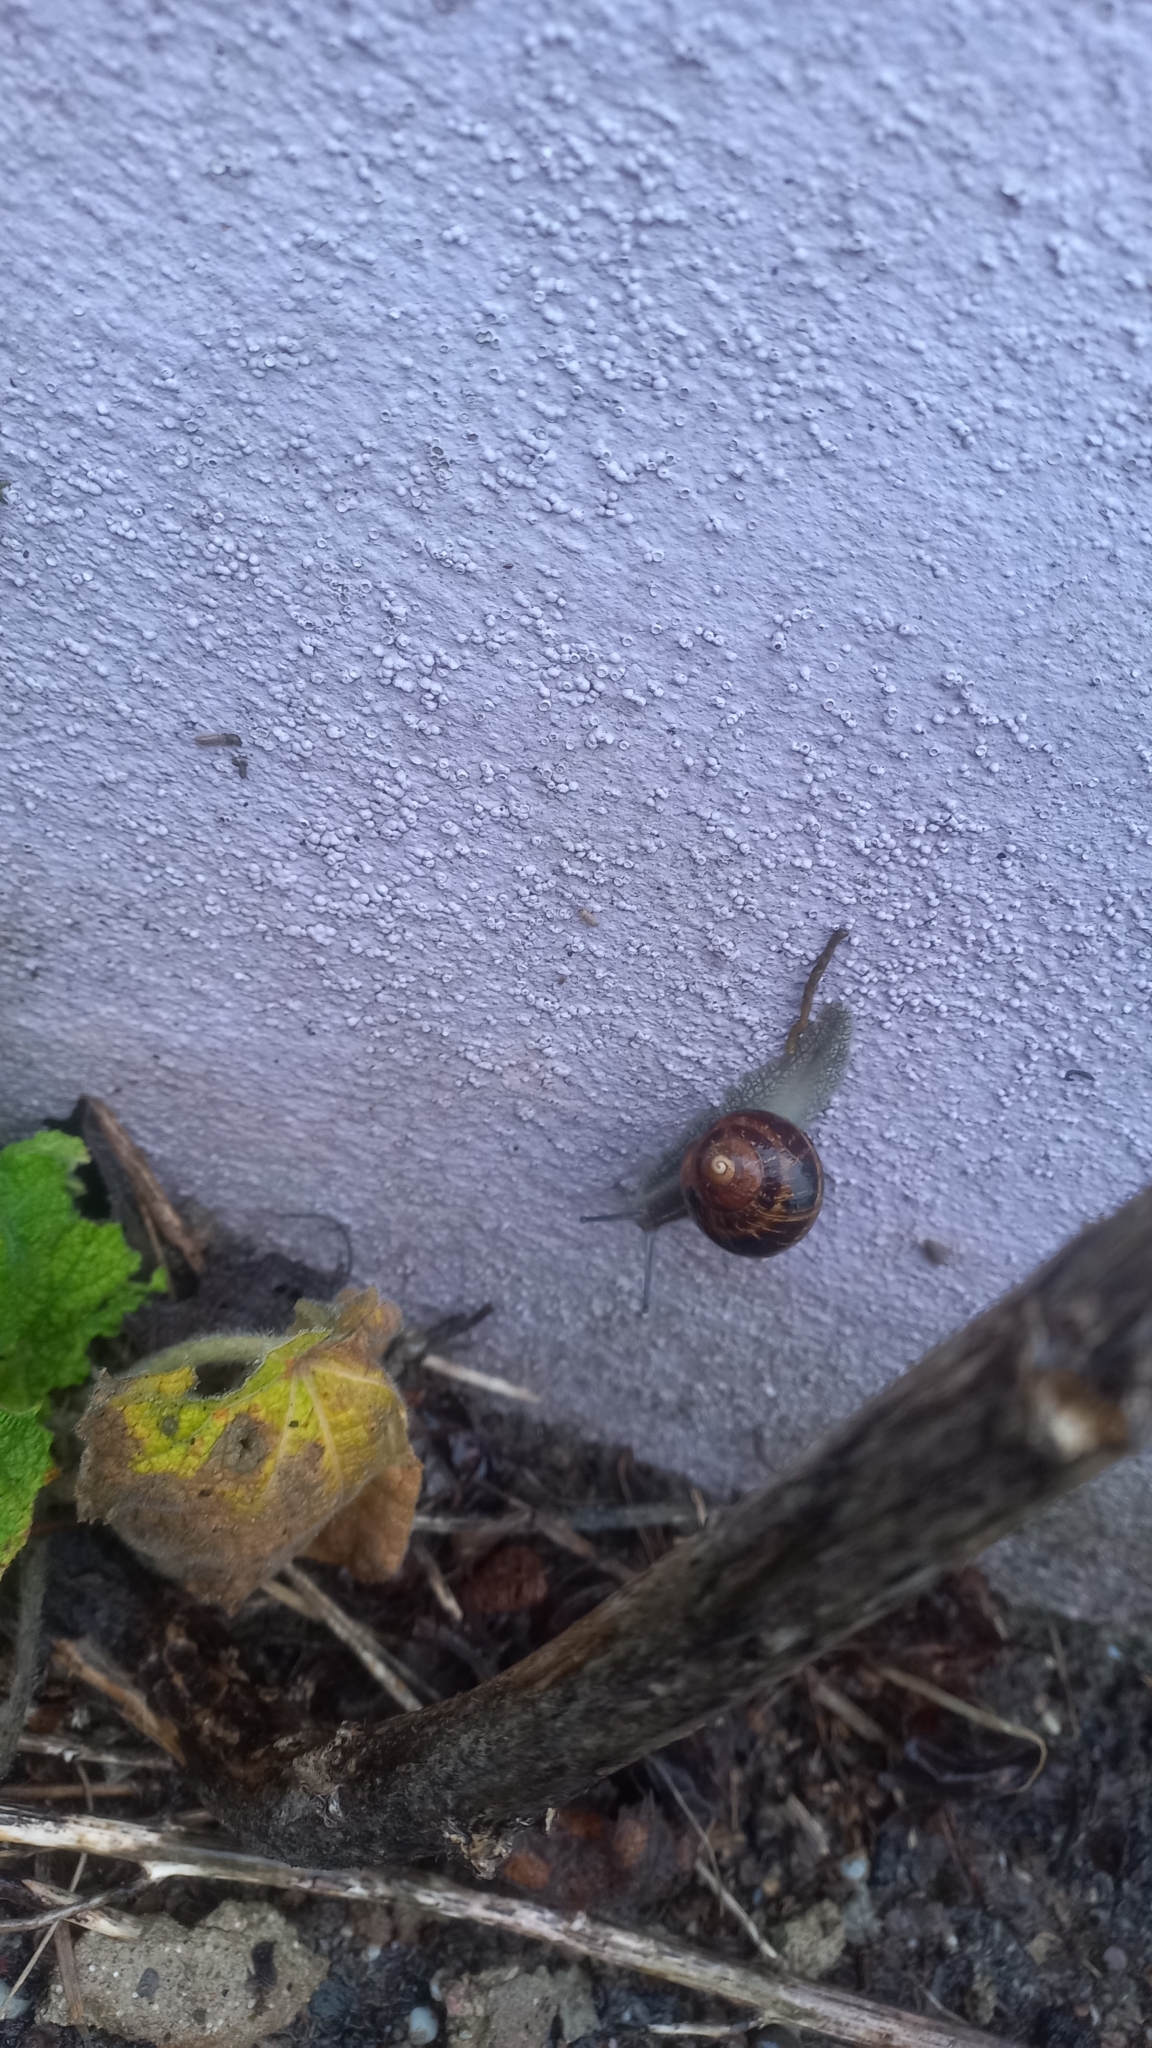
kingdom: Animalia
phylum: Mollusca
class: Gastropoda
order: Stylommatophora
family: Helicidae
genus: Cornu
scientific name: Cornu aspersum
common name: Brown garden snail
